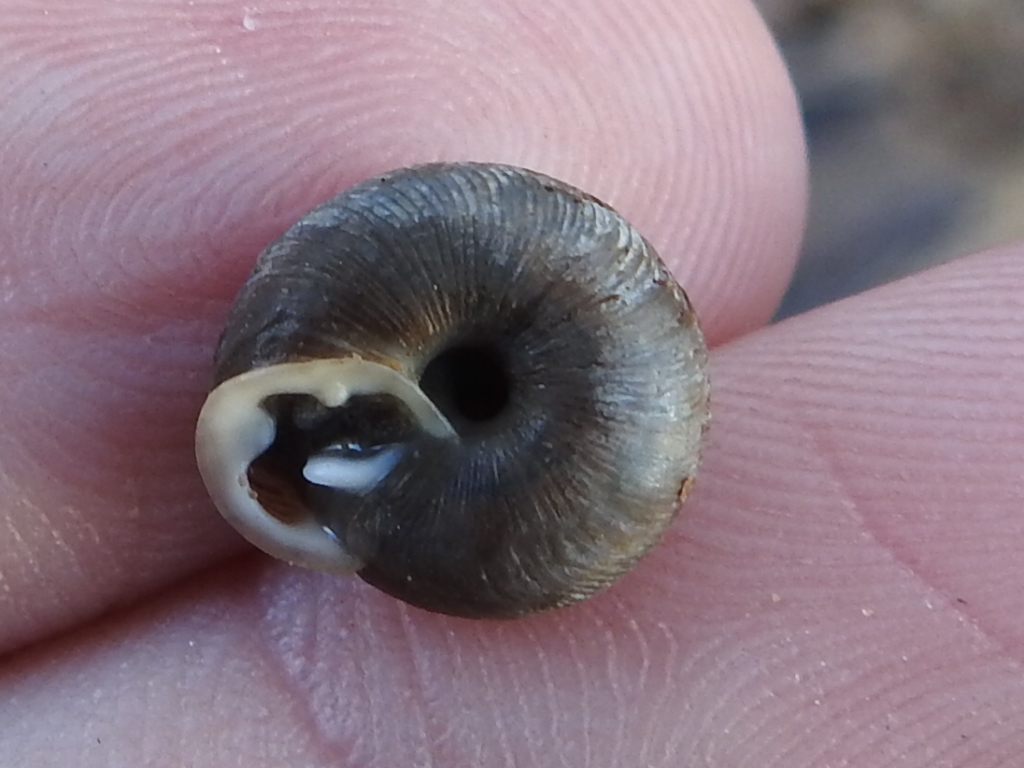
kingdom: Animalia
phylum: Mollusca
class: Gastropoda
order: Stylommatophora
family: Polygyridae
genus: Triodopsis
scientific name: Triodopsis hopetonensis
